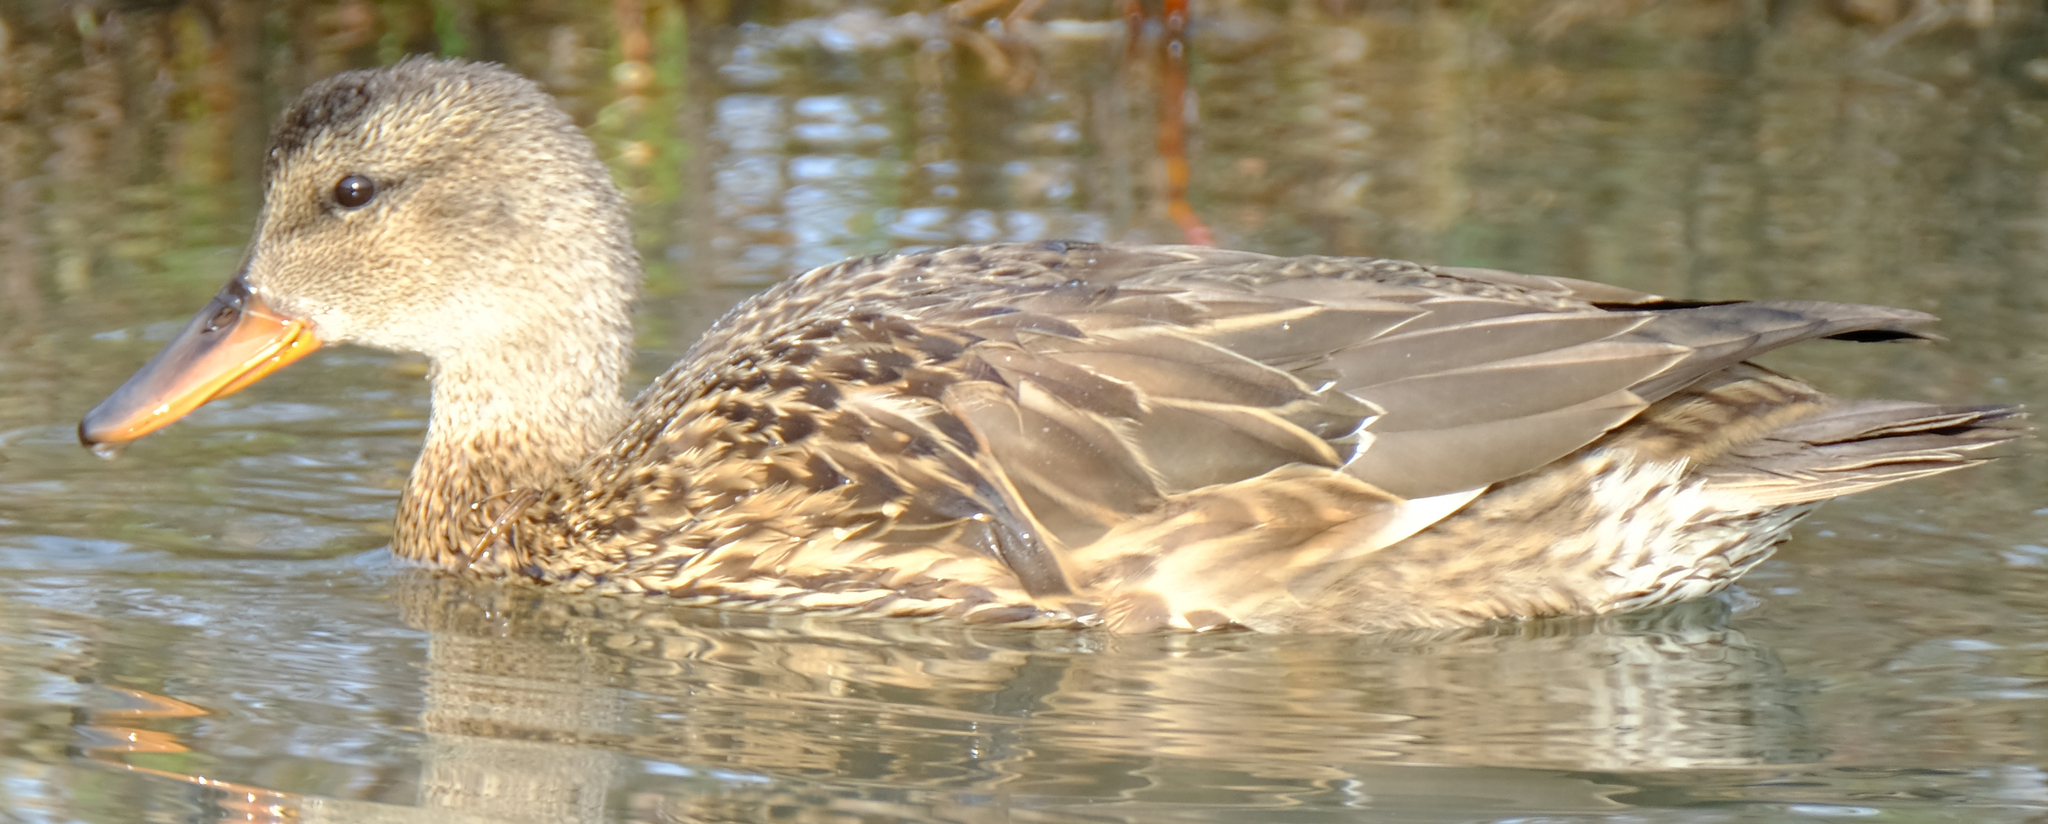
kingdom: Animalia
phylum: Chordata
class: Aves
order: Anseriformes
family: Anatidae
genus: Mareca
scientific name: Mareca strepera
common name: Gadwall
